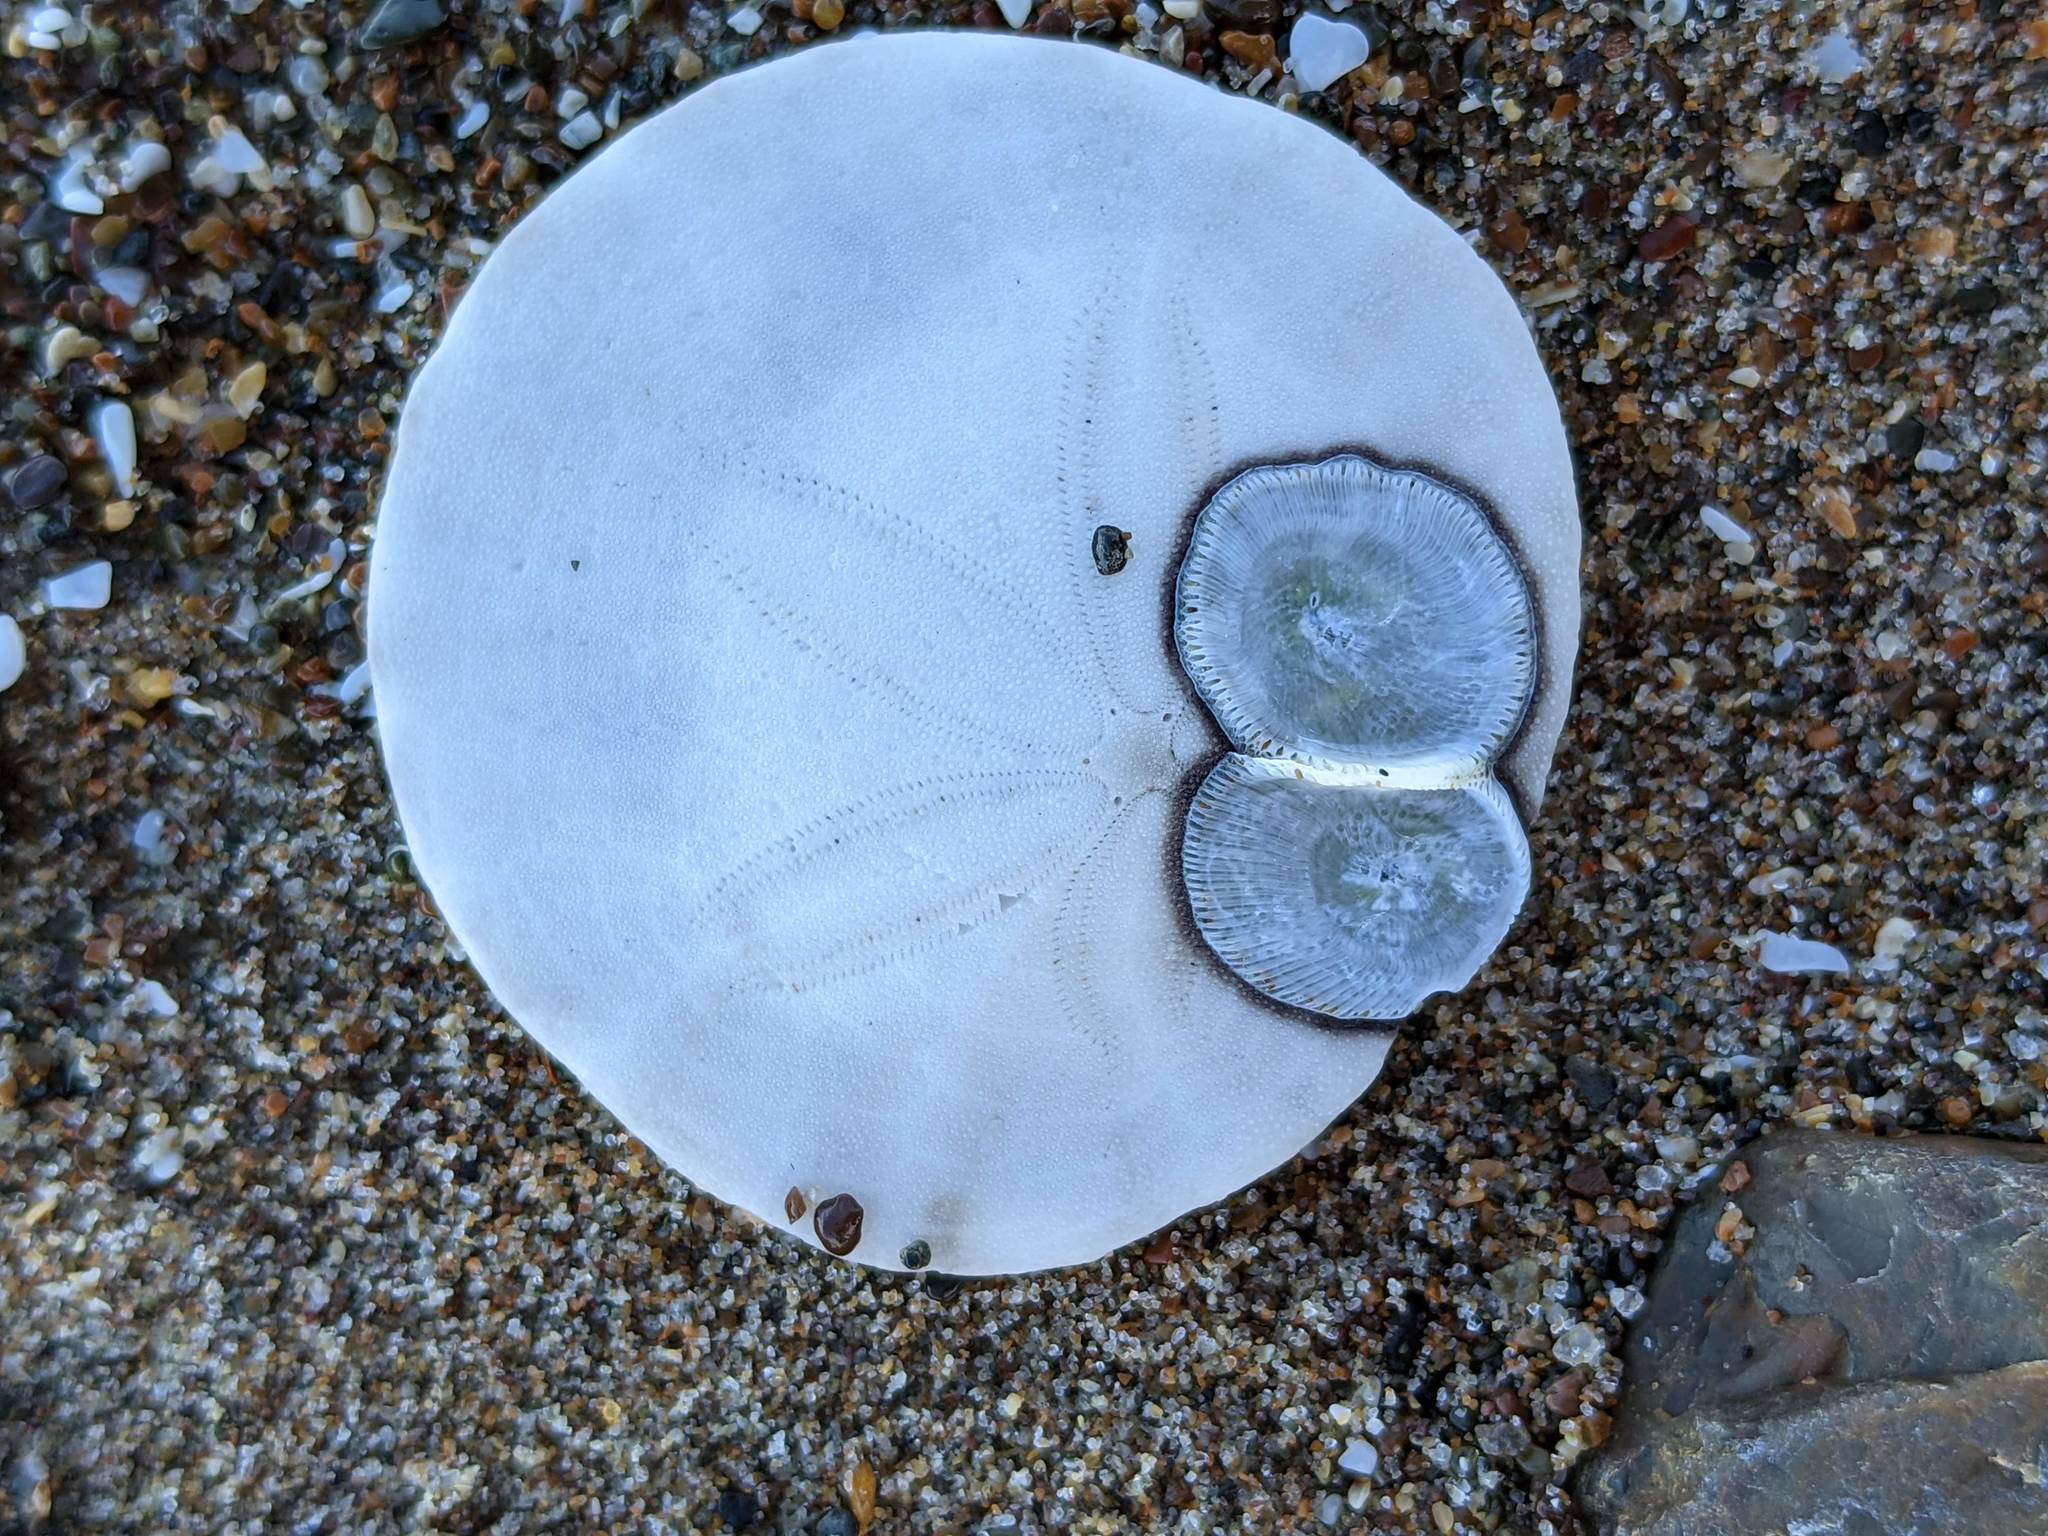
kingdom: Animalia
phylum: Arthropoda
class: Maxillopoda
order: Sessilia
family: Balanidae
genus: Paraconcavus
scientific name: Paraconcavus pacificus
